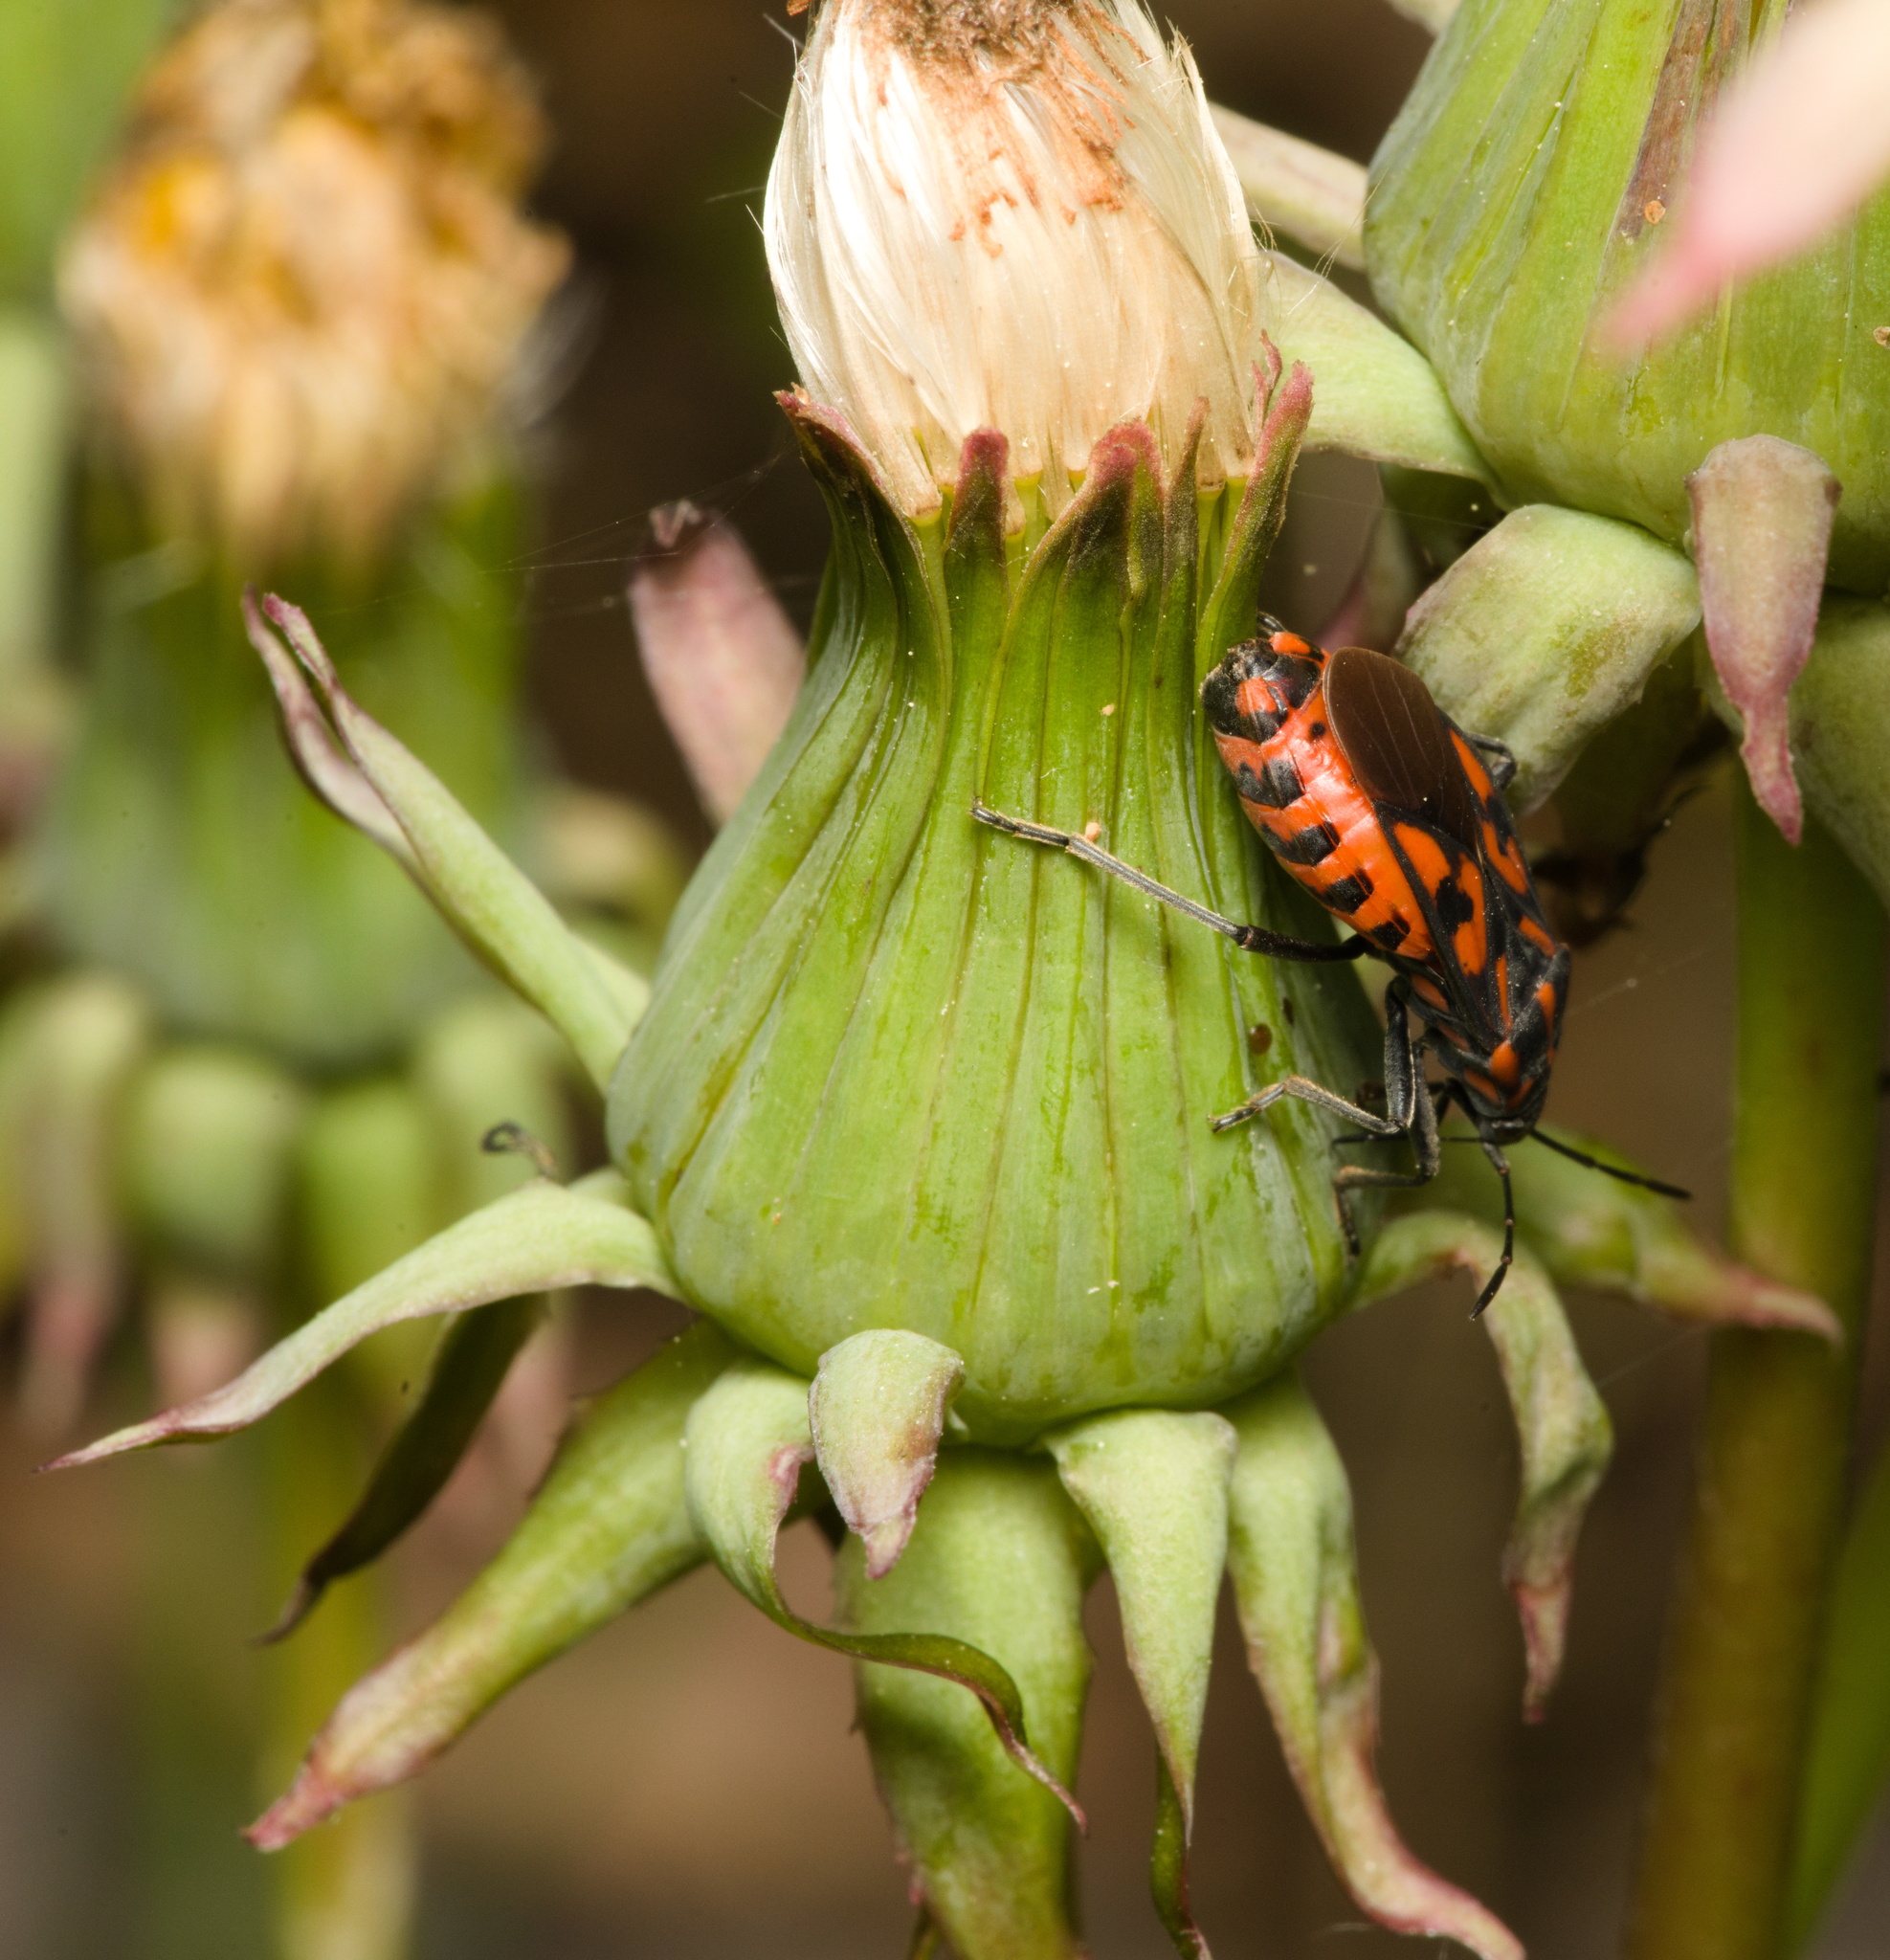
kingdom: Animalia
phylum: Arthropoda
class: Insecta
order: Hemiptera
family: Lygaeidae
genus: Spilostethus
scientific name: Spilostethus saxatilis
